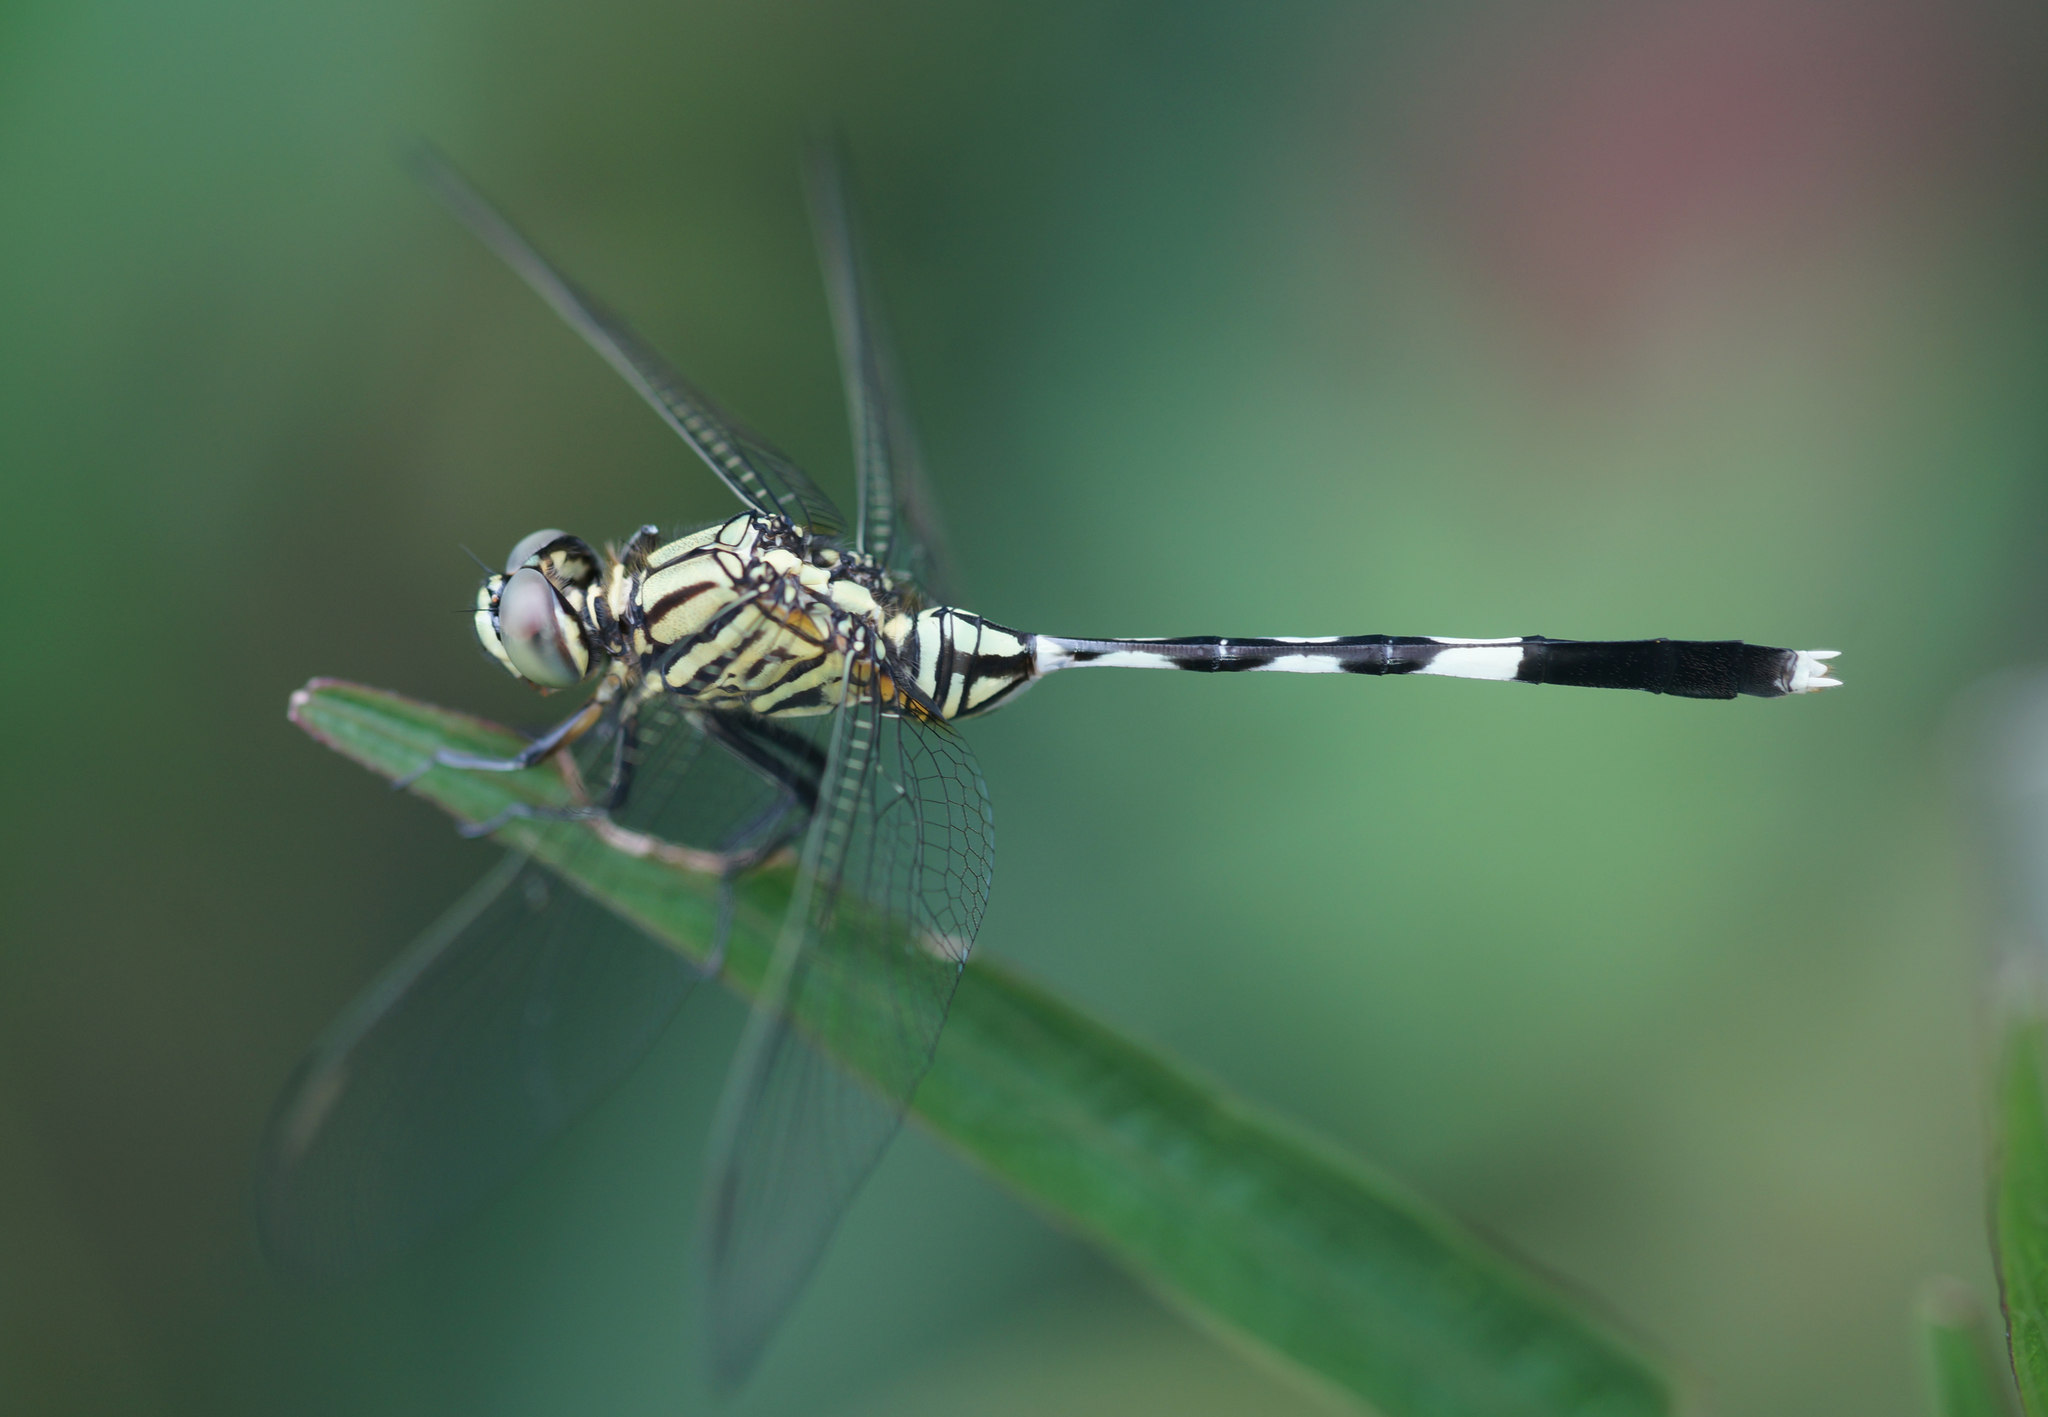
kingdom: Animalia
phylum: Arthropoda
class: Insecta
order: Odonata
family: Libellulidae
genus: Orthetrum
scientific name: Orthetrum sabina
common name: Slender skimmer
